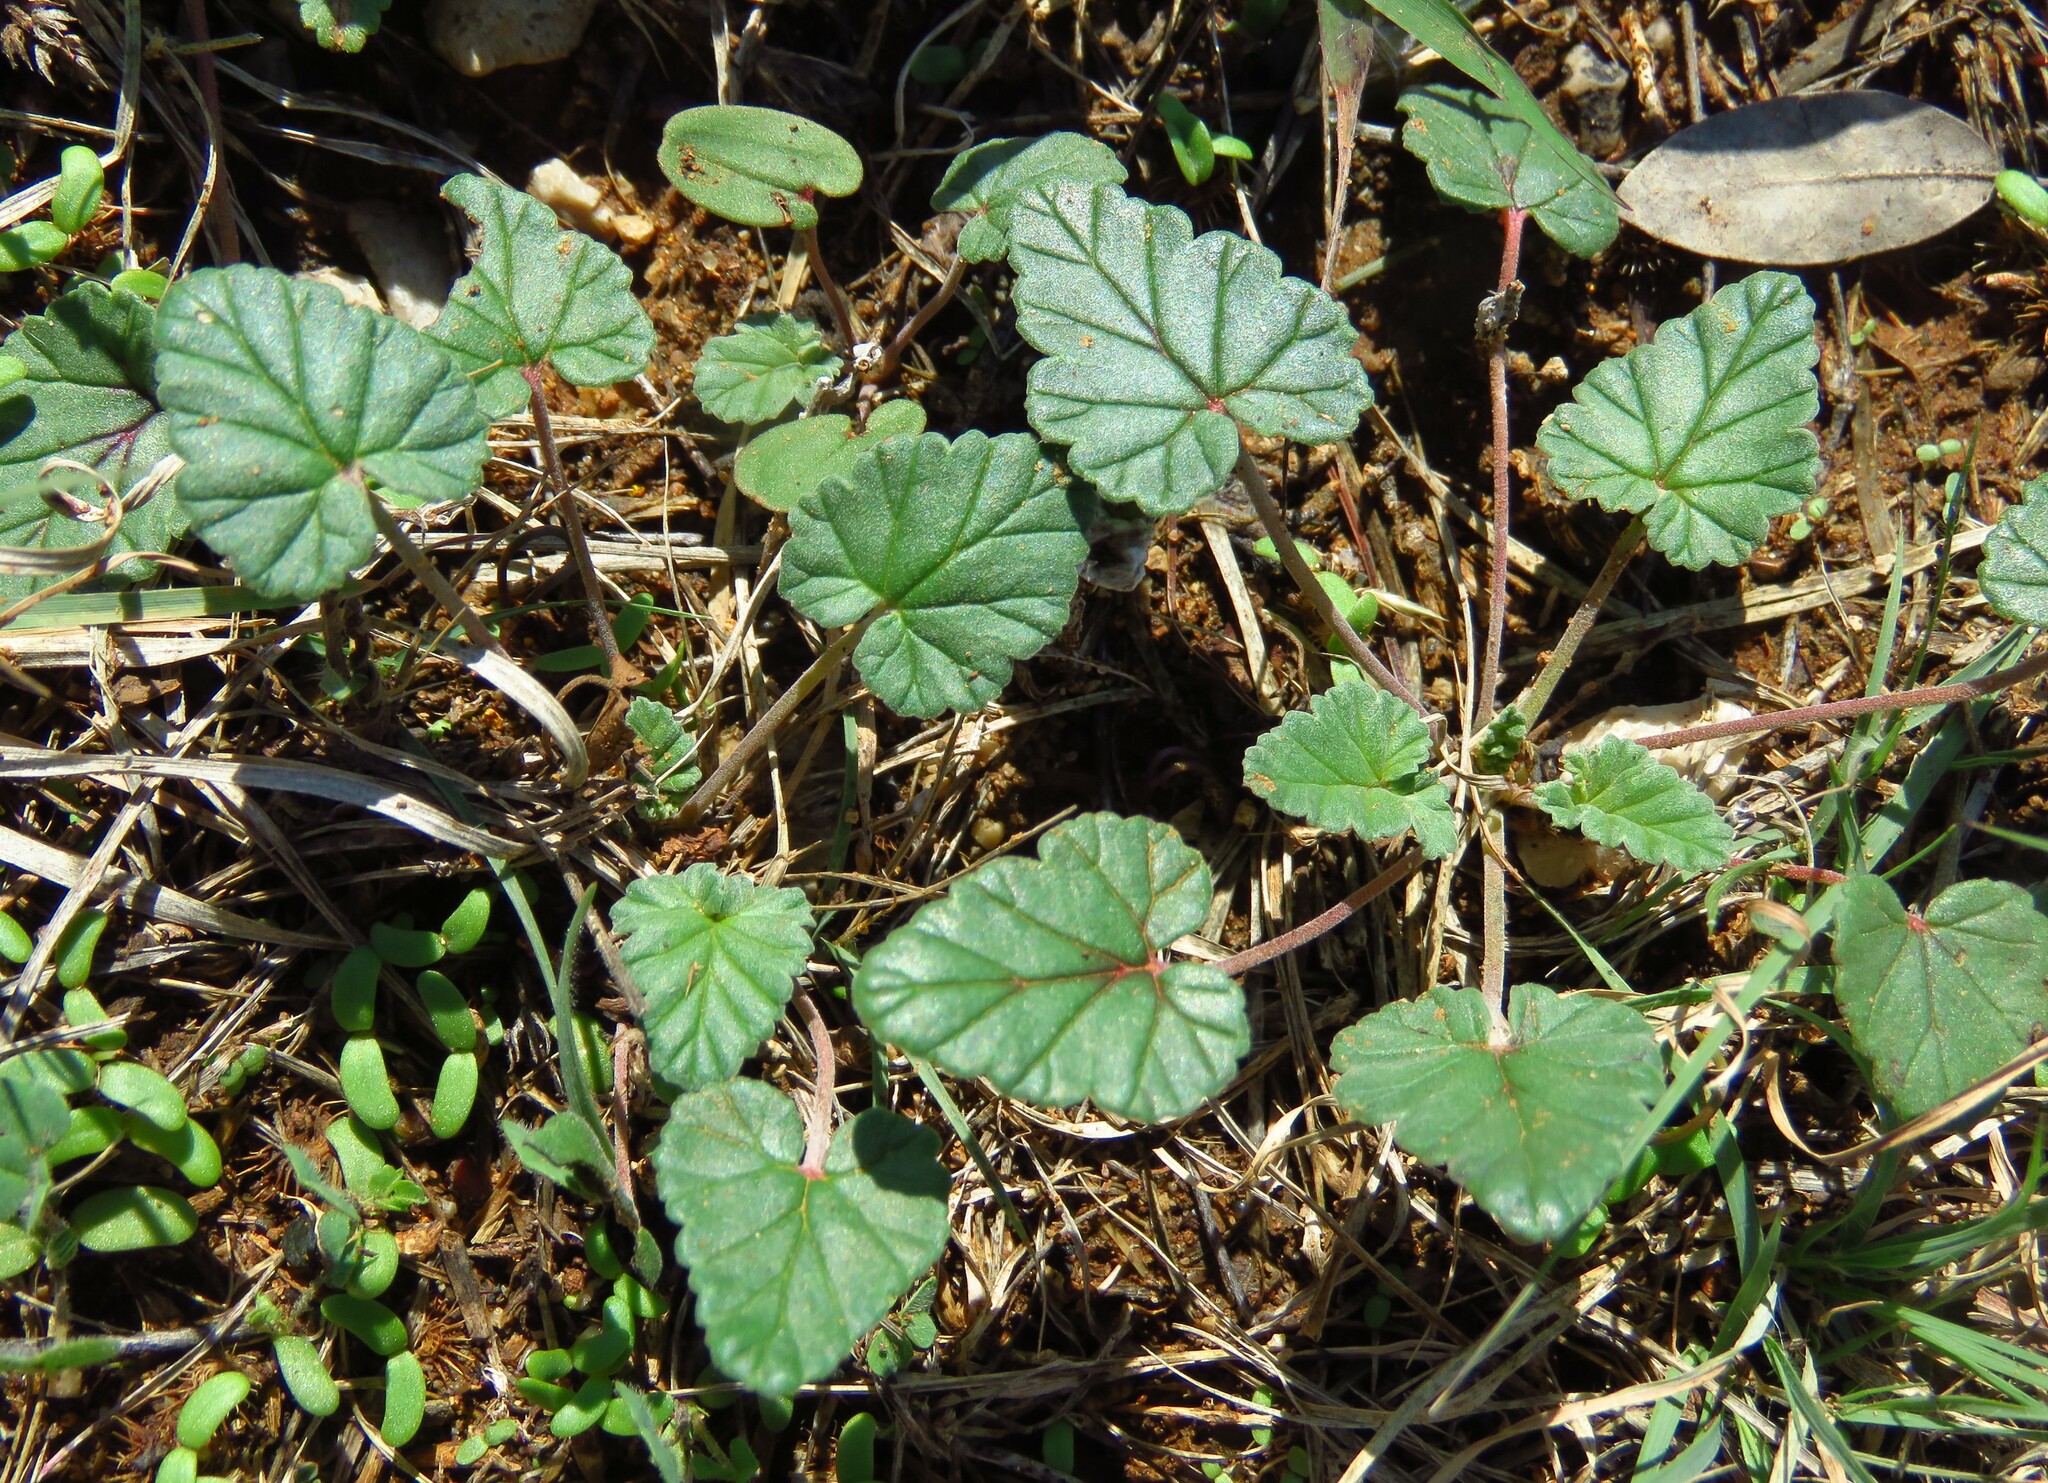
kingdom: Plantae
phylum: Tracheophyta
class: Magnoliopsida
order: Geraniales
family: Geraniaceae
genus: Erodium
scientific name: Erodium texanum
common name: Texas stork's-bill
